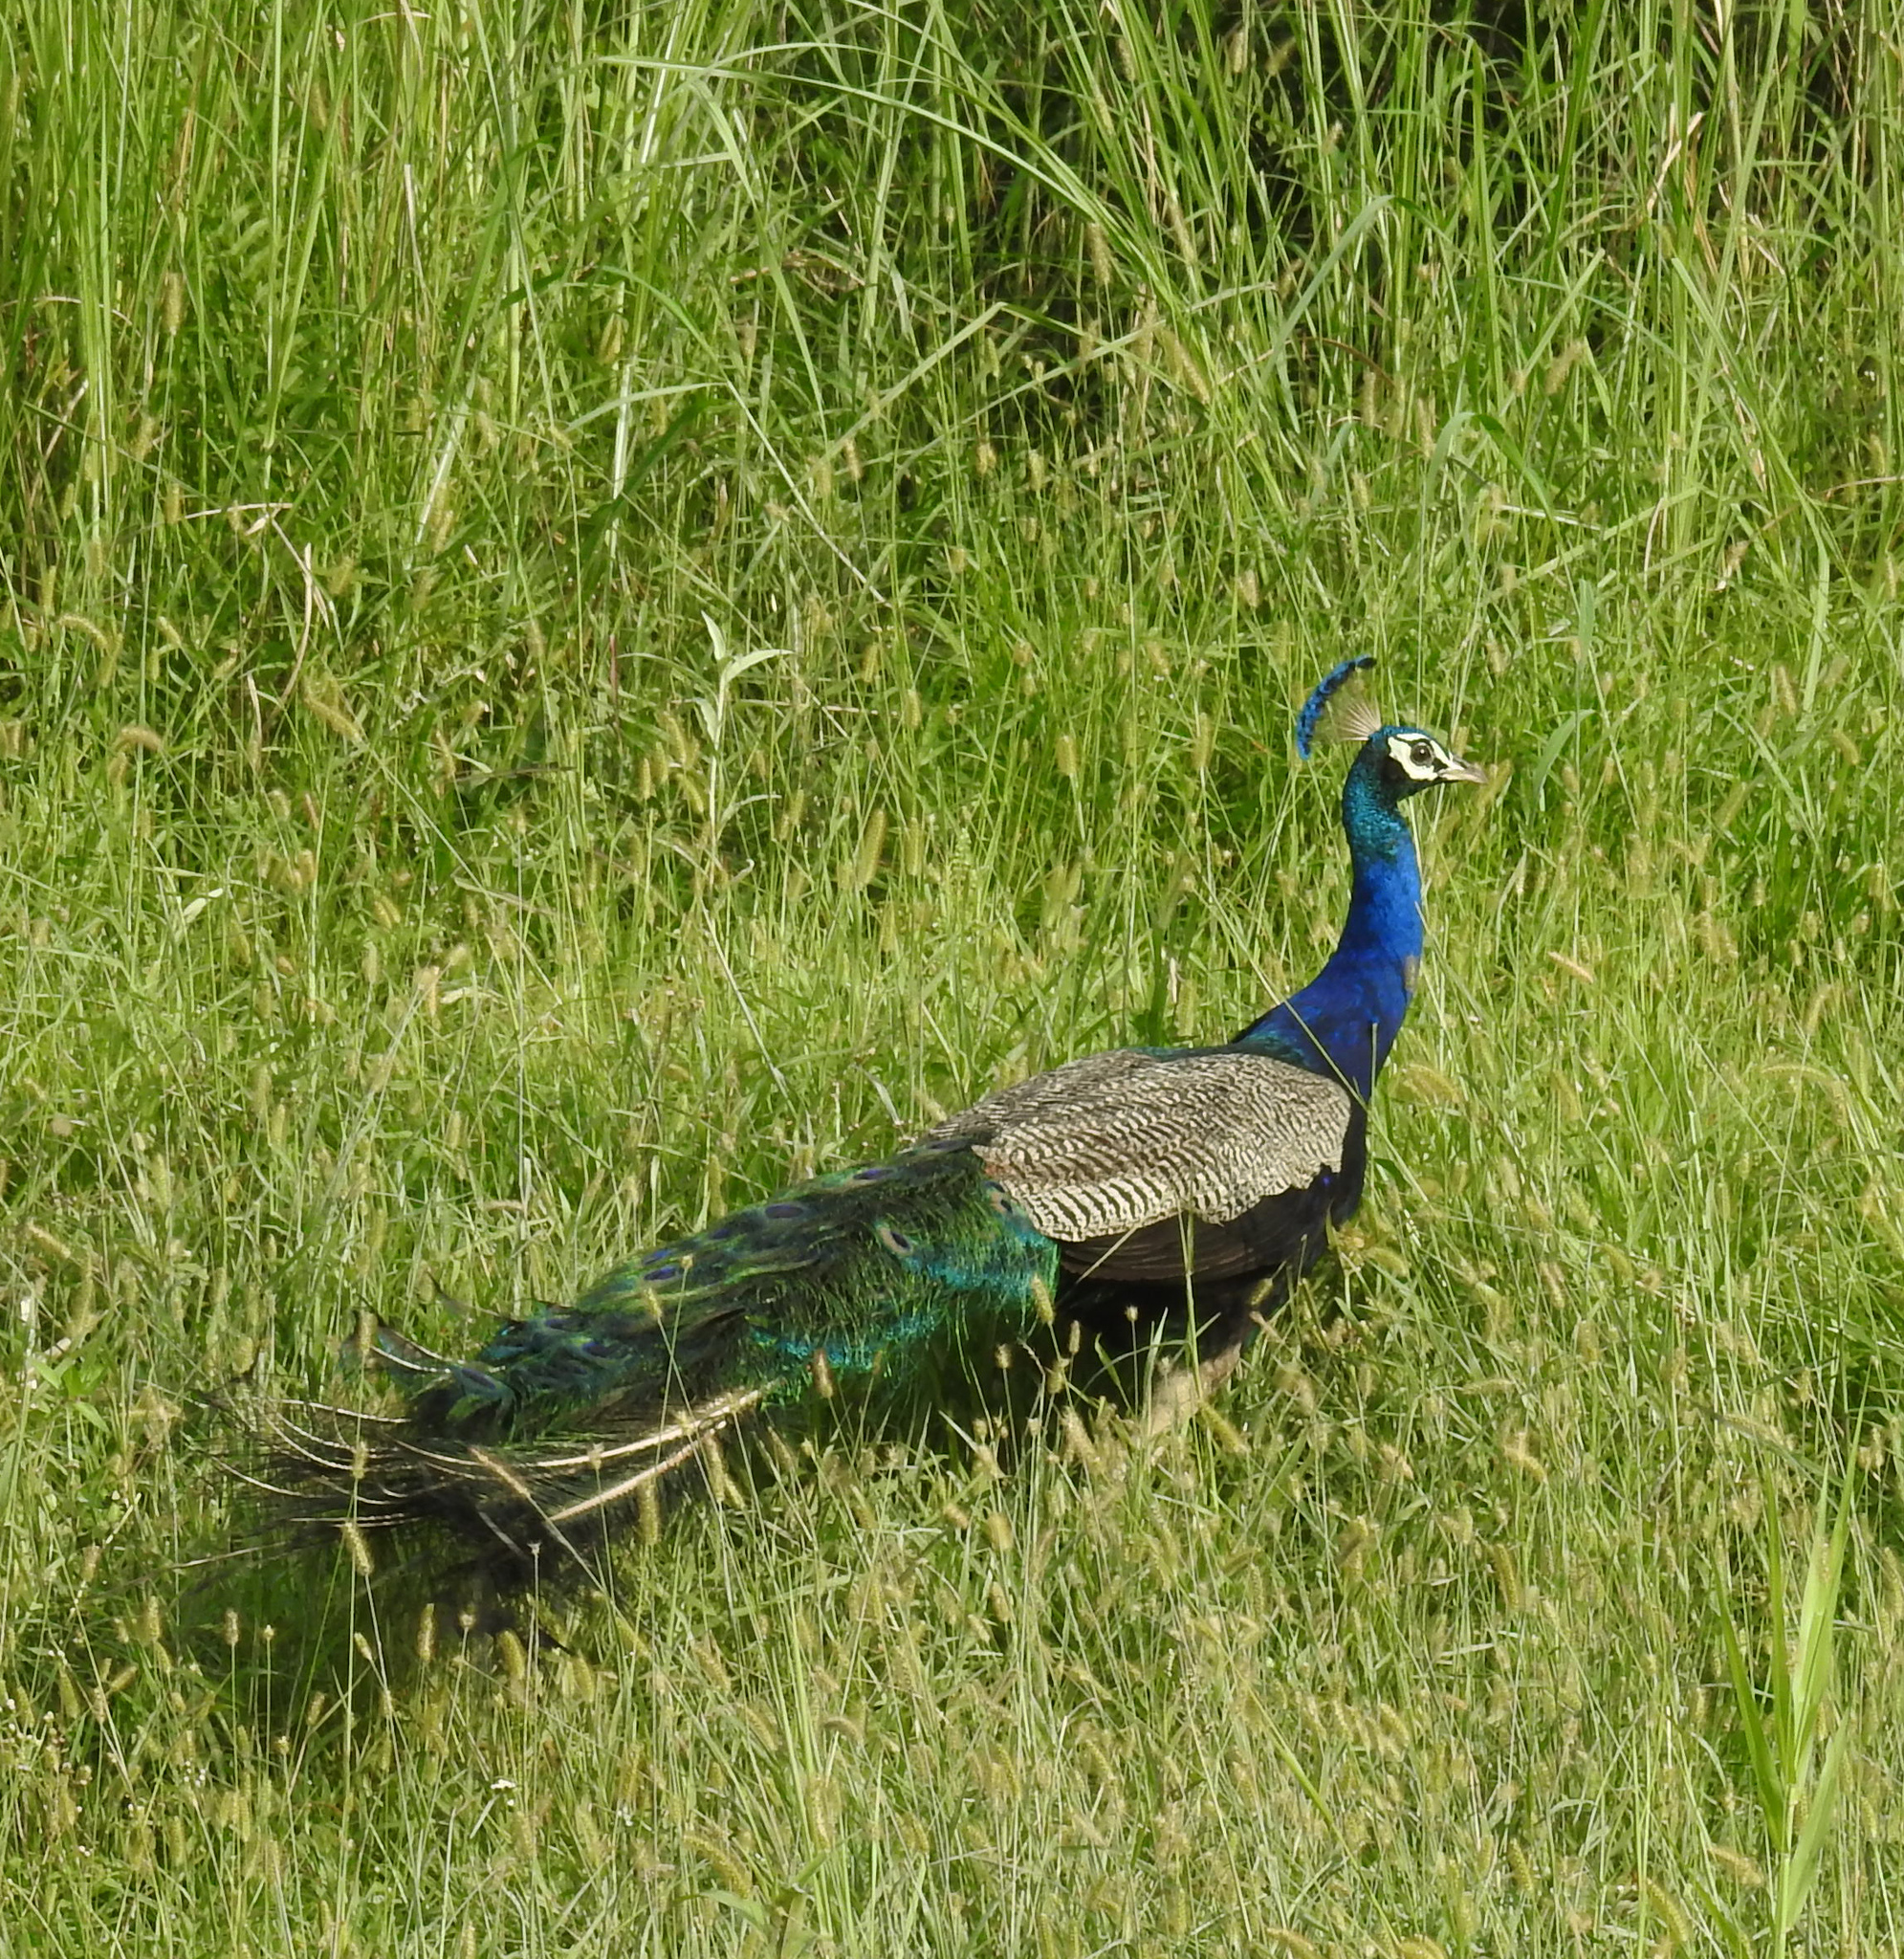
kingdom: Animalia
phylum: Chordata
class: Aves
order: Galliformes
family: Phasianidae
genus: Pavo
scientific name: Pavo cristatus
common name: Indian peafowl
